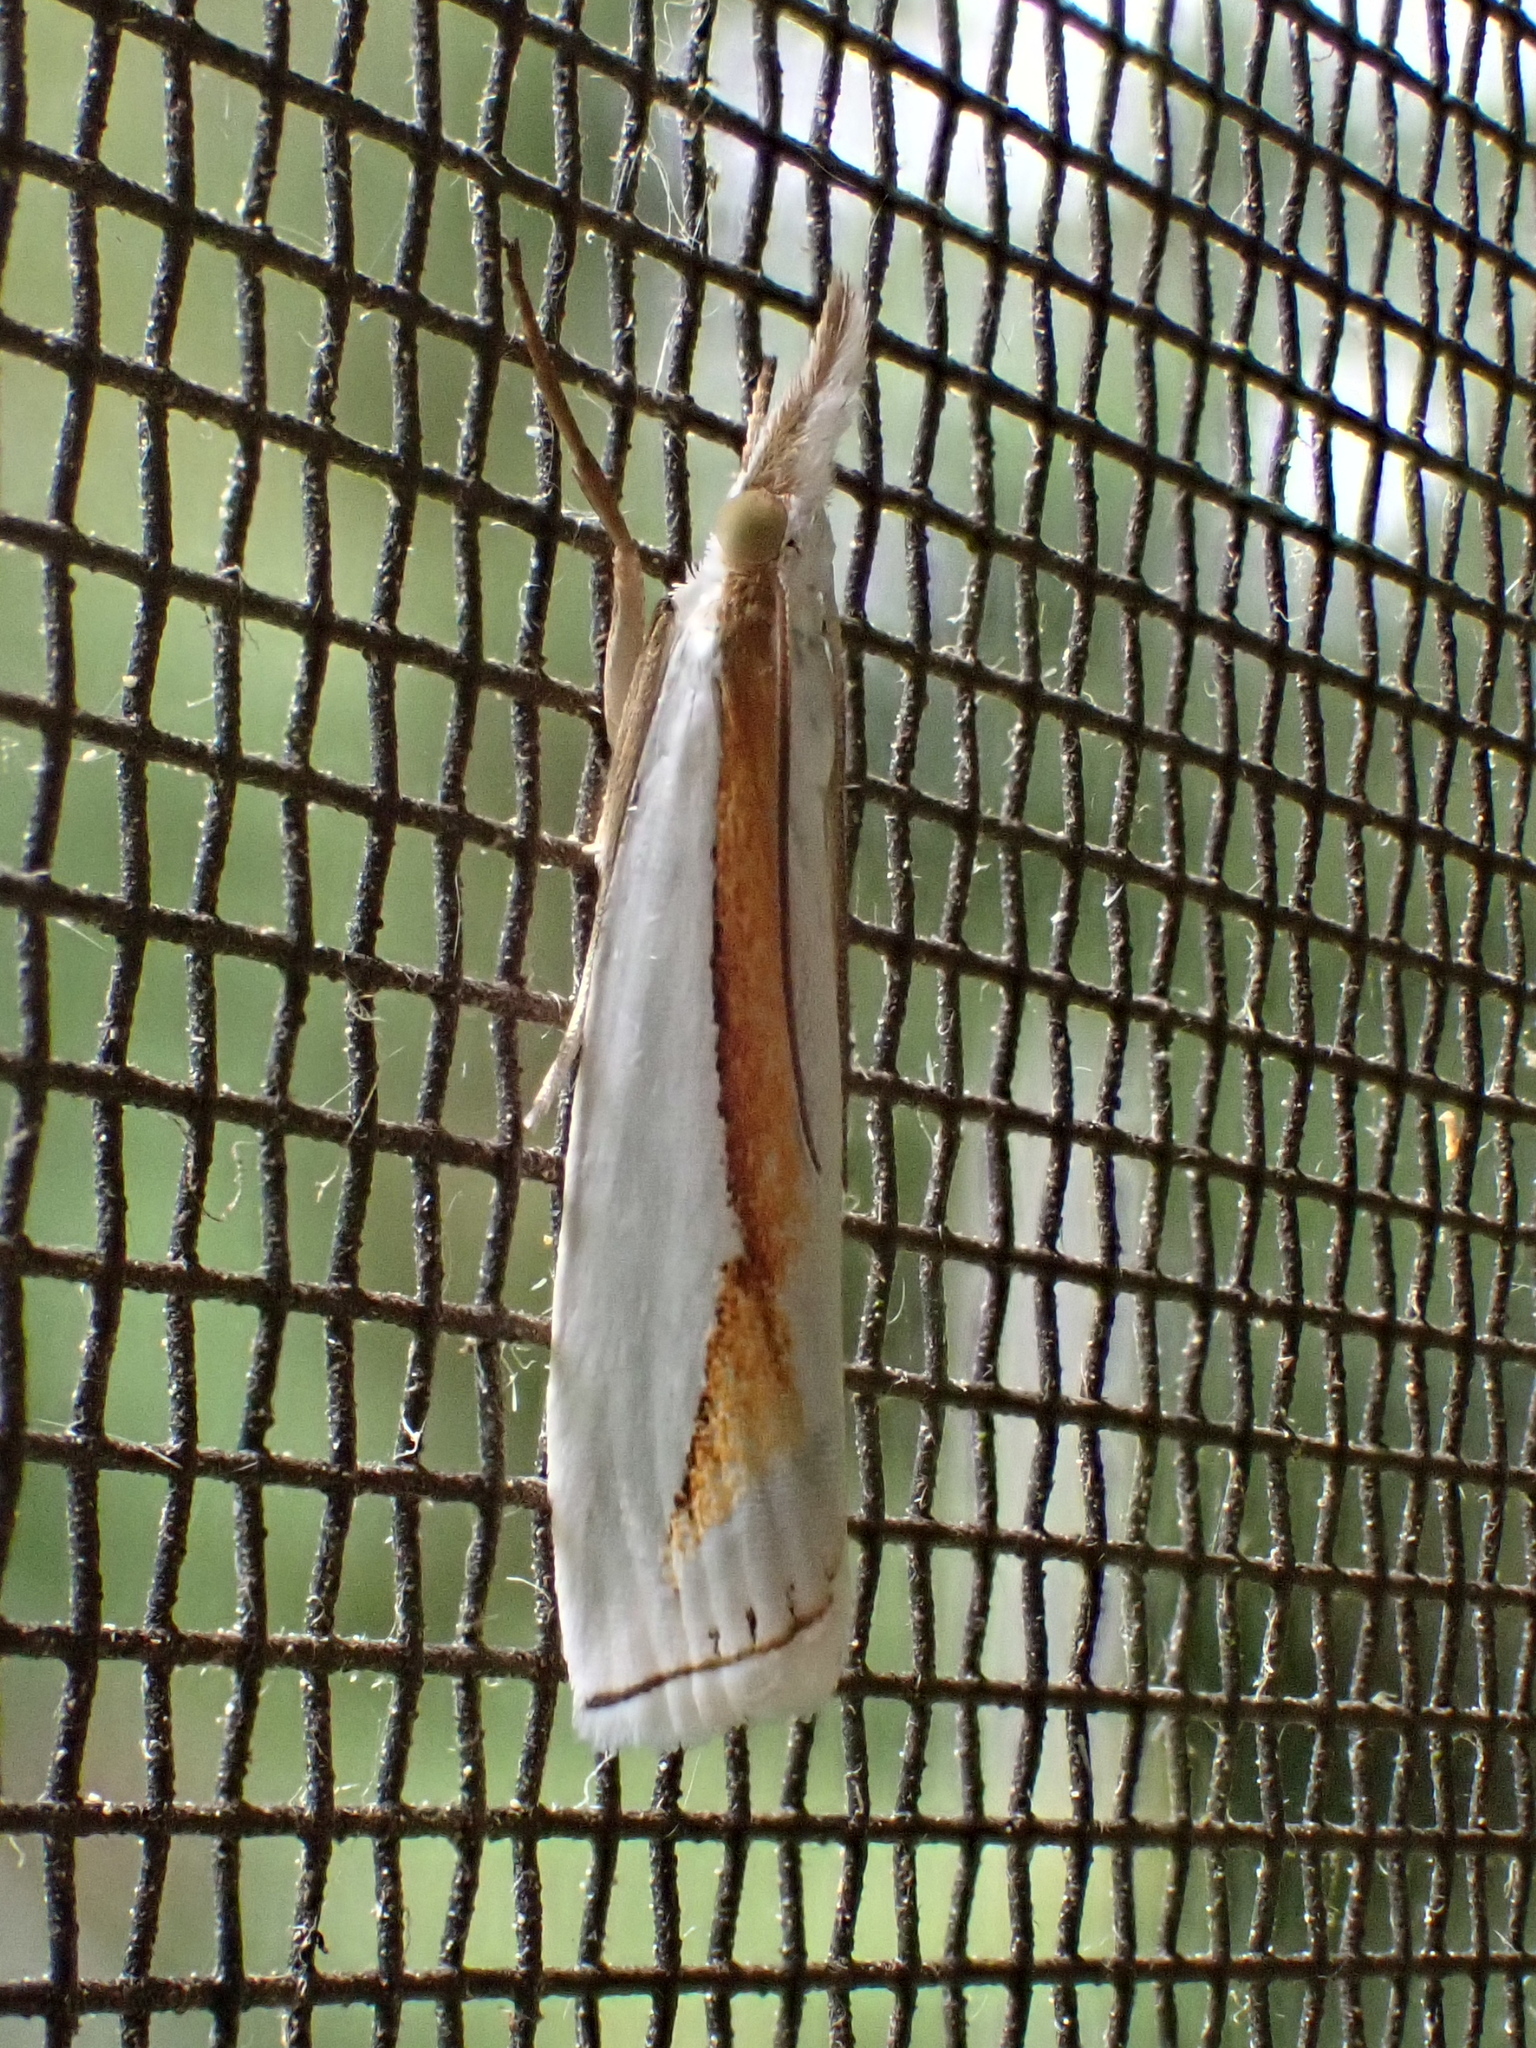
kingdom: Animalia
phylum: Arthropoda
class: Insecta
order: Lepidoptera
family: Crambidae
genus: Crambus
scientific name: Crambus girardellus
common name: Girard's grass-veneer
